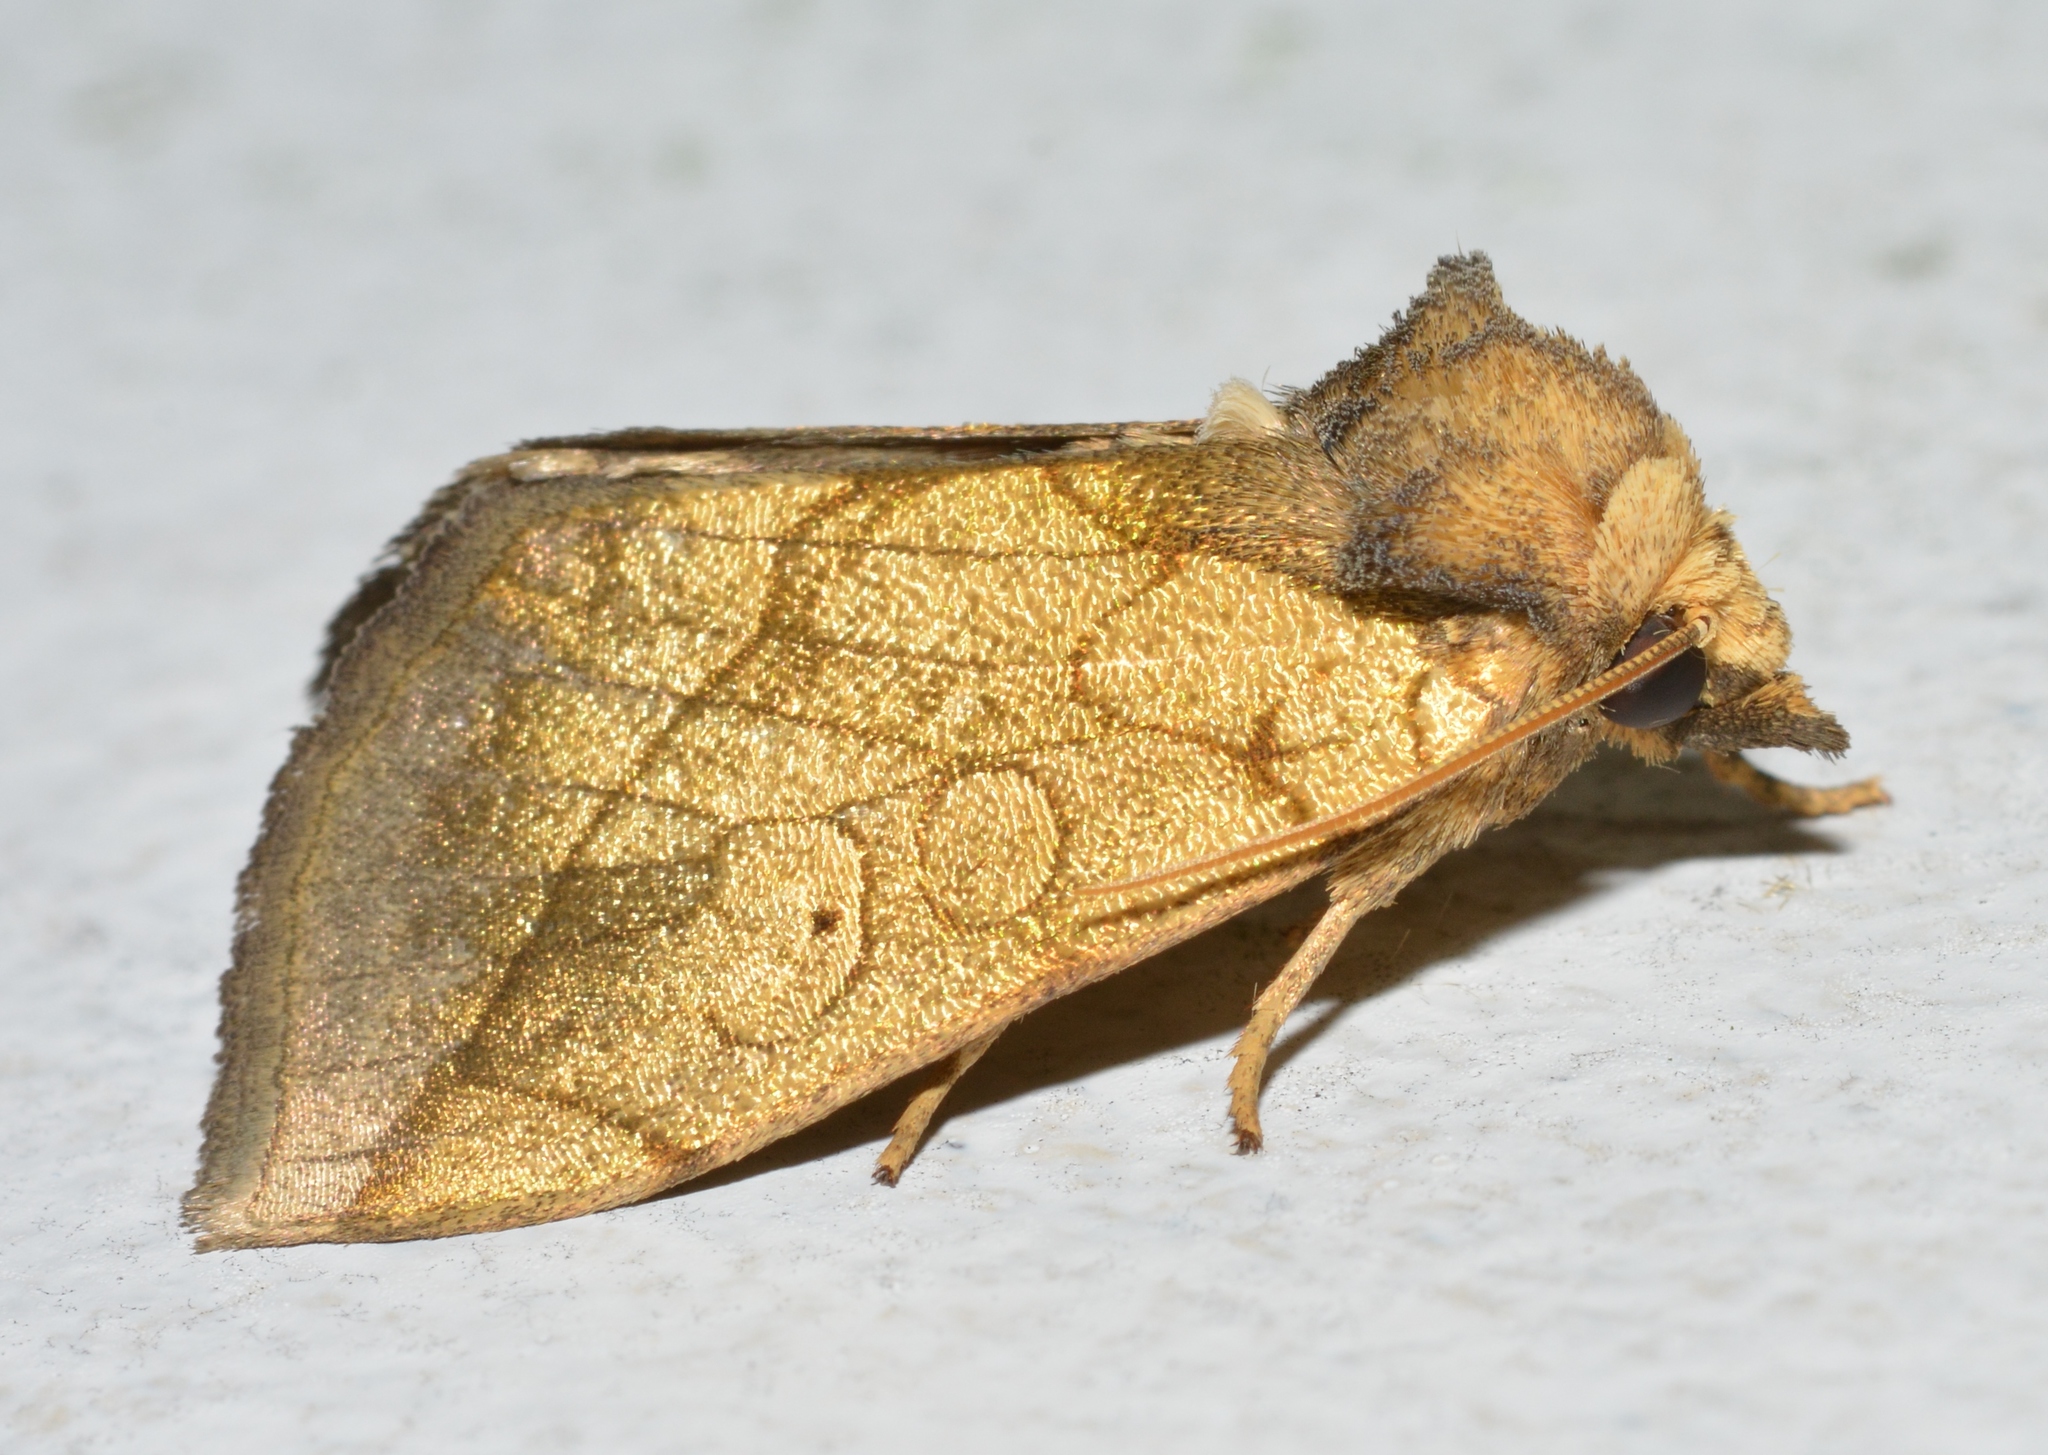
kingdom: Animalia
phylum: Arthropoda
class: Insecta
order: Lepidoptera
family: Noctuidae
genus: Basilodes
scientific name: Basilodes pepita
